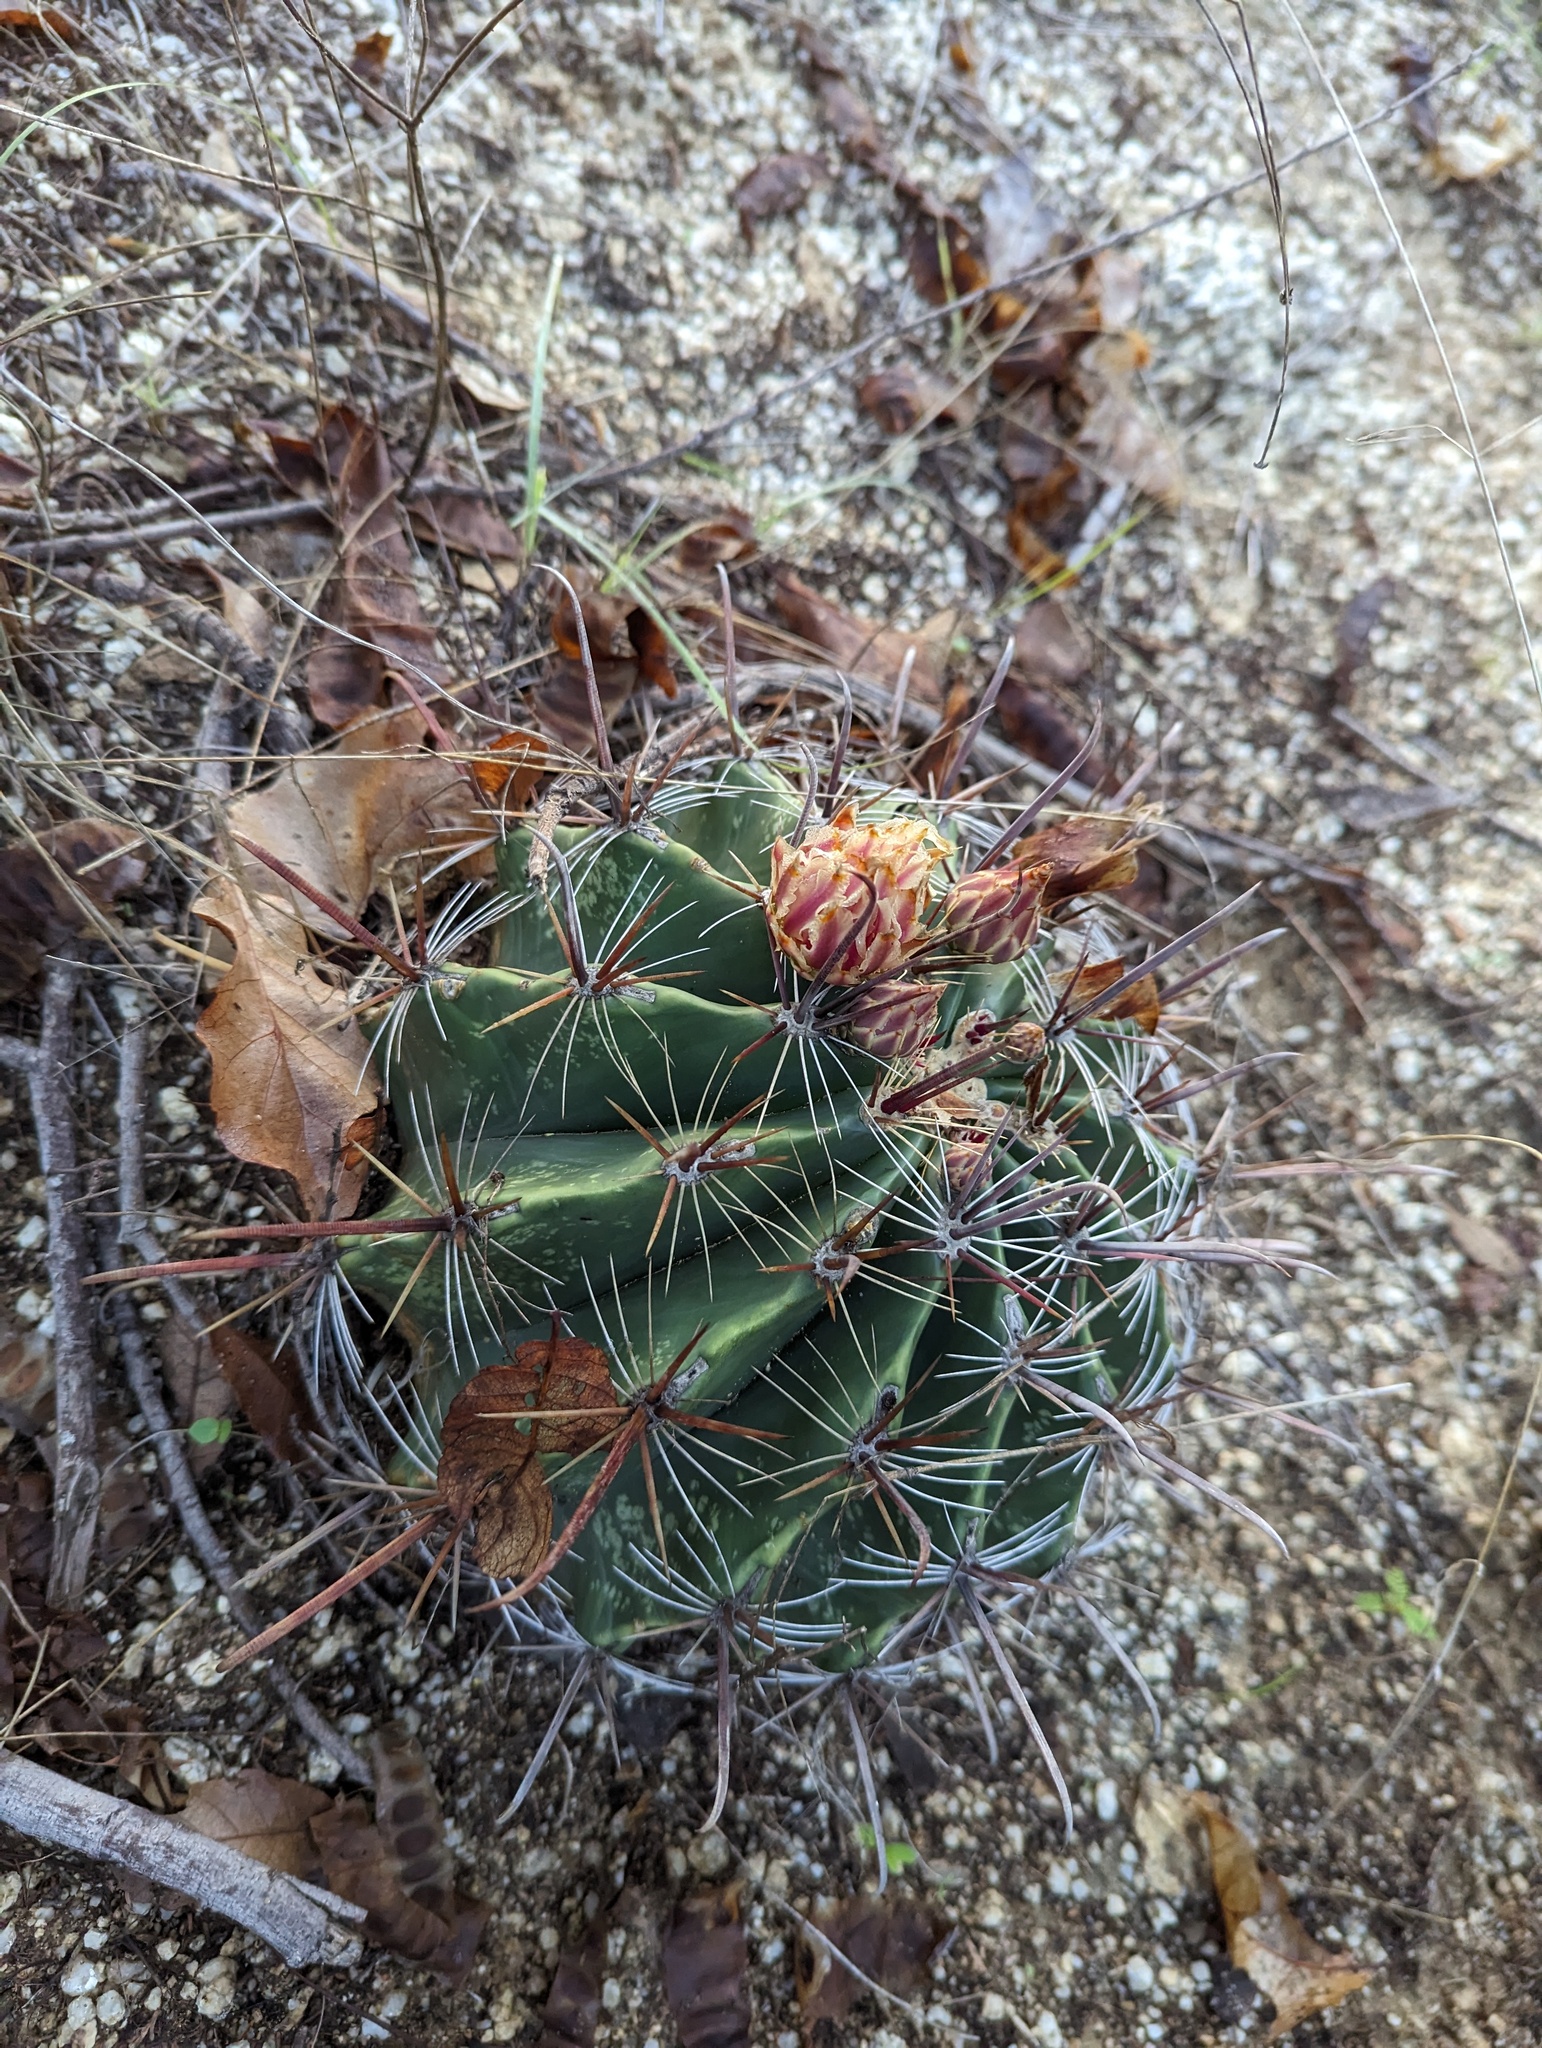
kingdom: Plantae
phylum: Tracheophyta
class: Magnoliopsida
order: Caryophyllales
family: Cactaceae
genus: Ferocactus
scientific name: Ferocactus townsendianus
